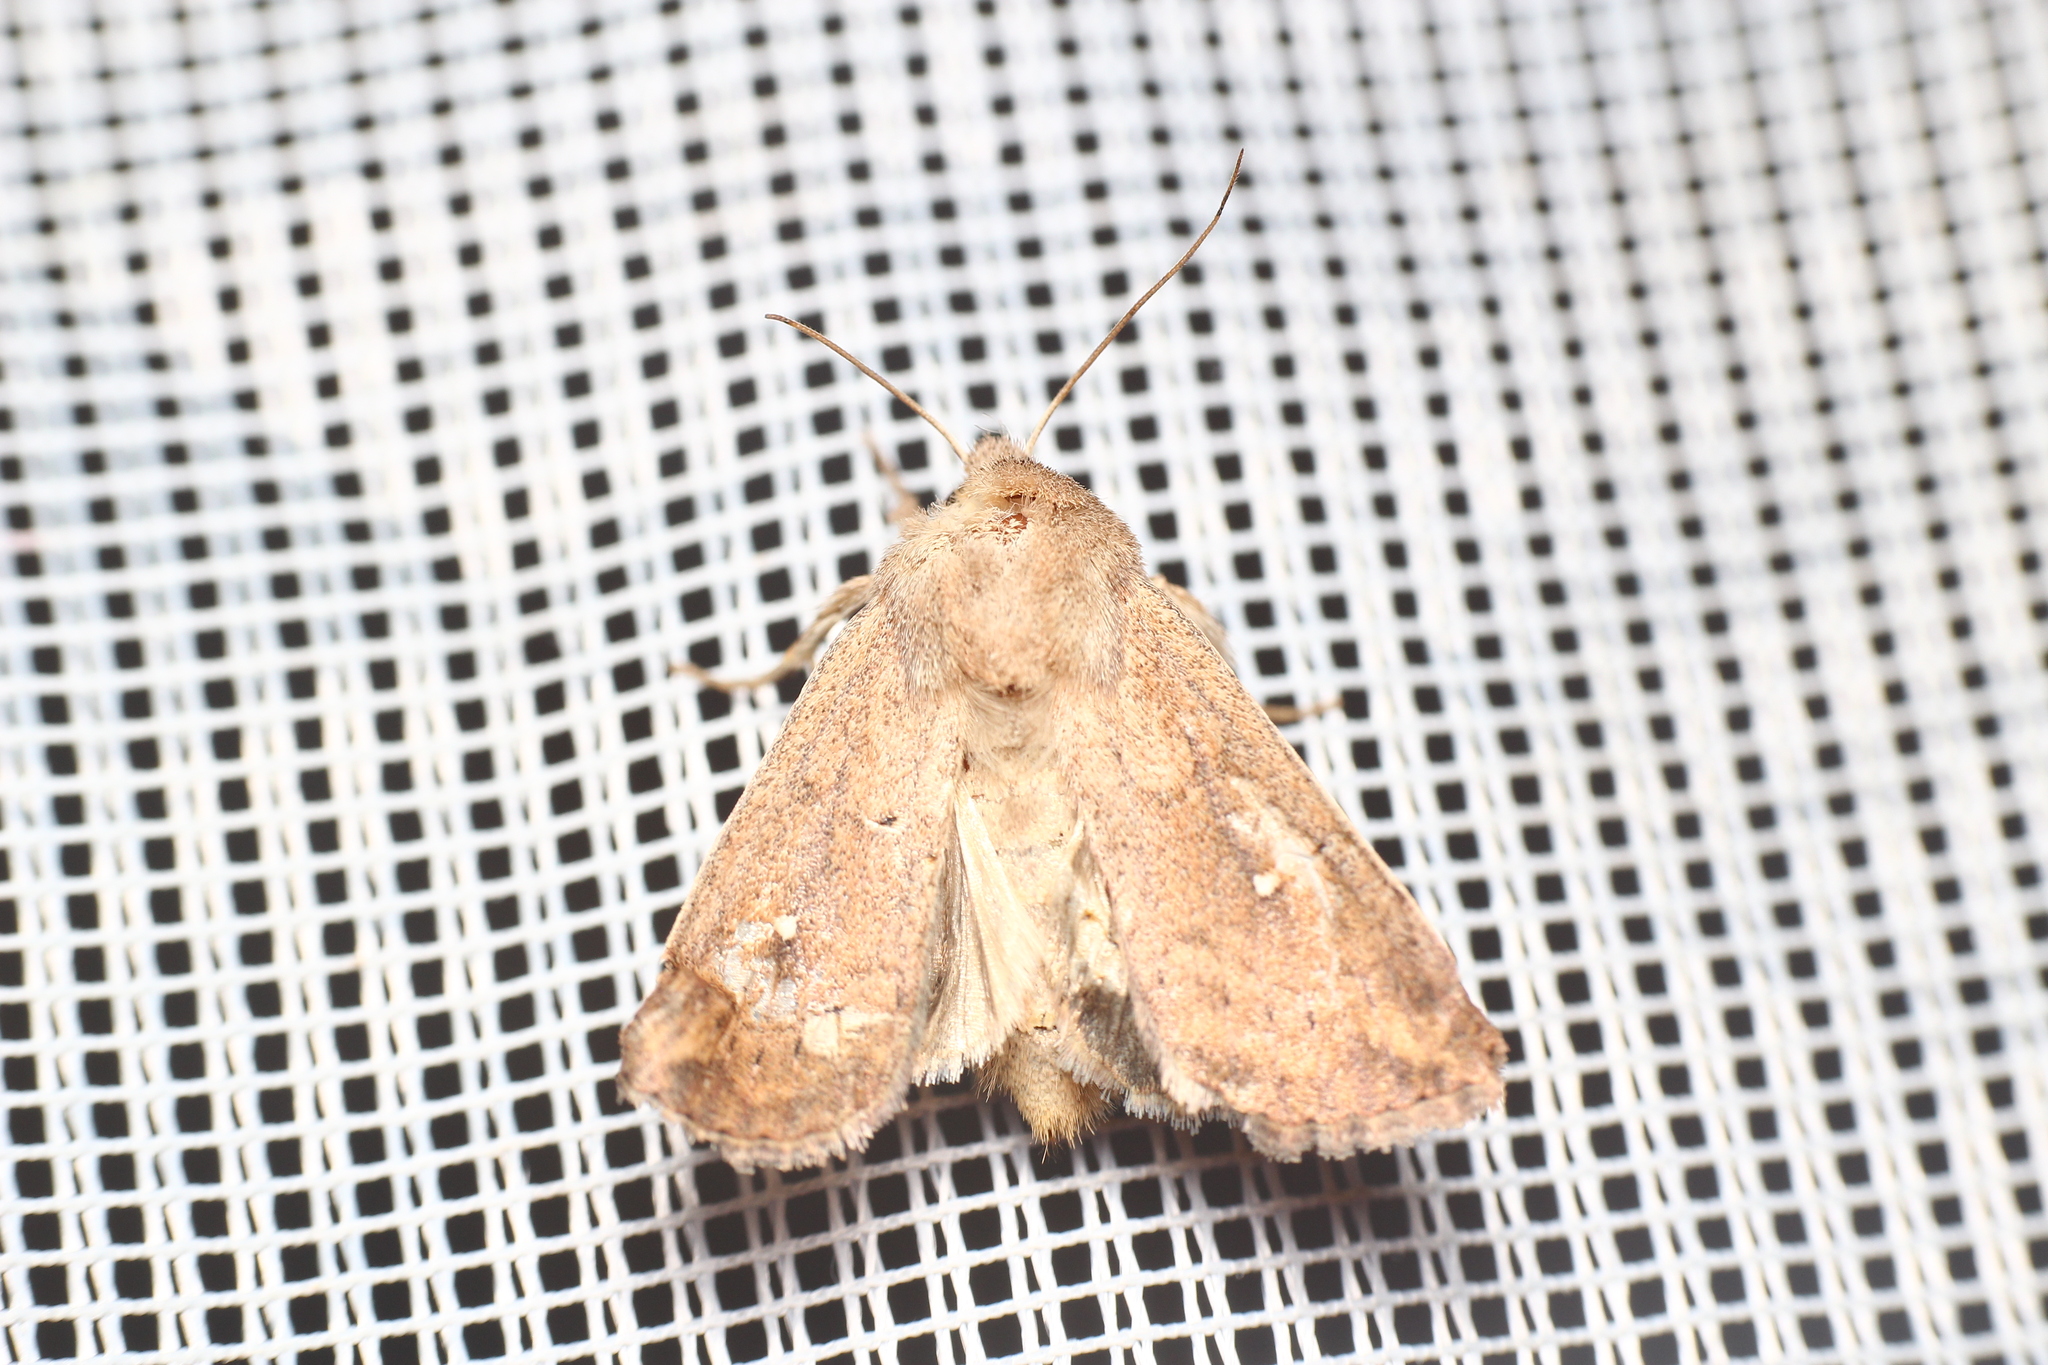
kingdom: Animalia
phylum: Arthropoda
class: Insecta
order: Lepidoptera
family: Noctuidae
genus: Mythimna
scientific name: Mythimna albipuncta
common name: White-point
